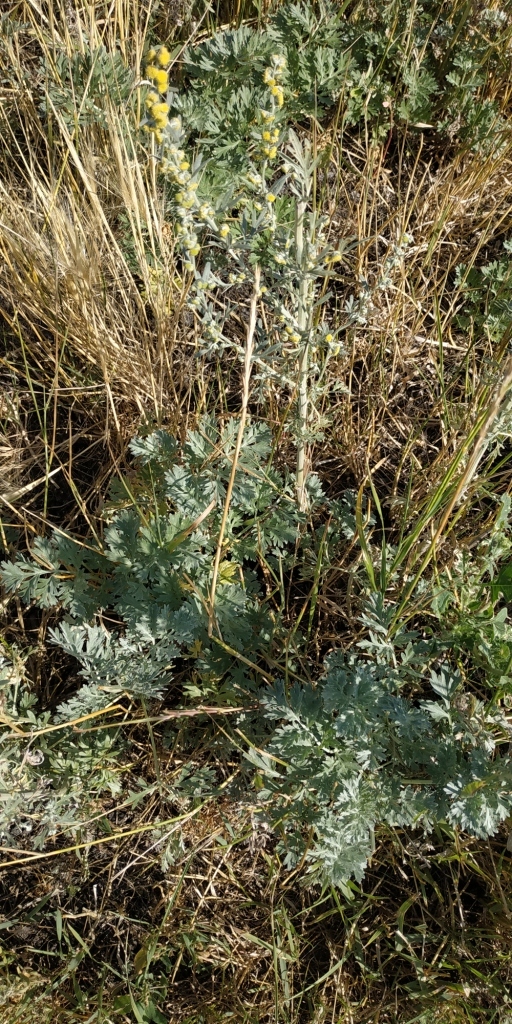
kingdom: Plantae
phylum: Tracheophyta
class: Magnoliopsida
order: Asterales
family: Asteraceae
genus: Artemisia
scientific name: Artemisia absinthium
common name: Wormwood
